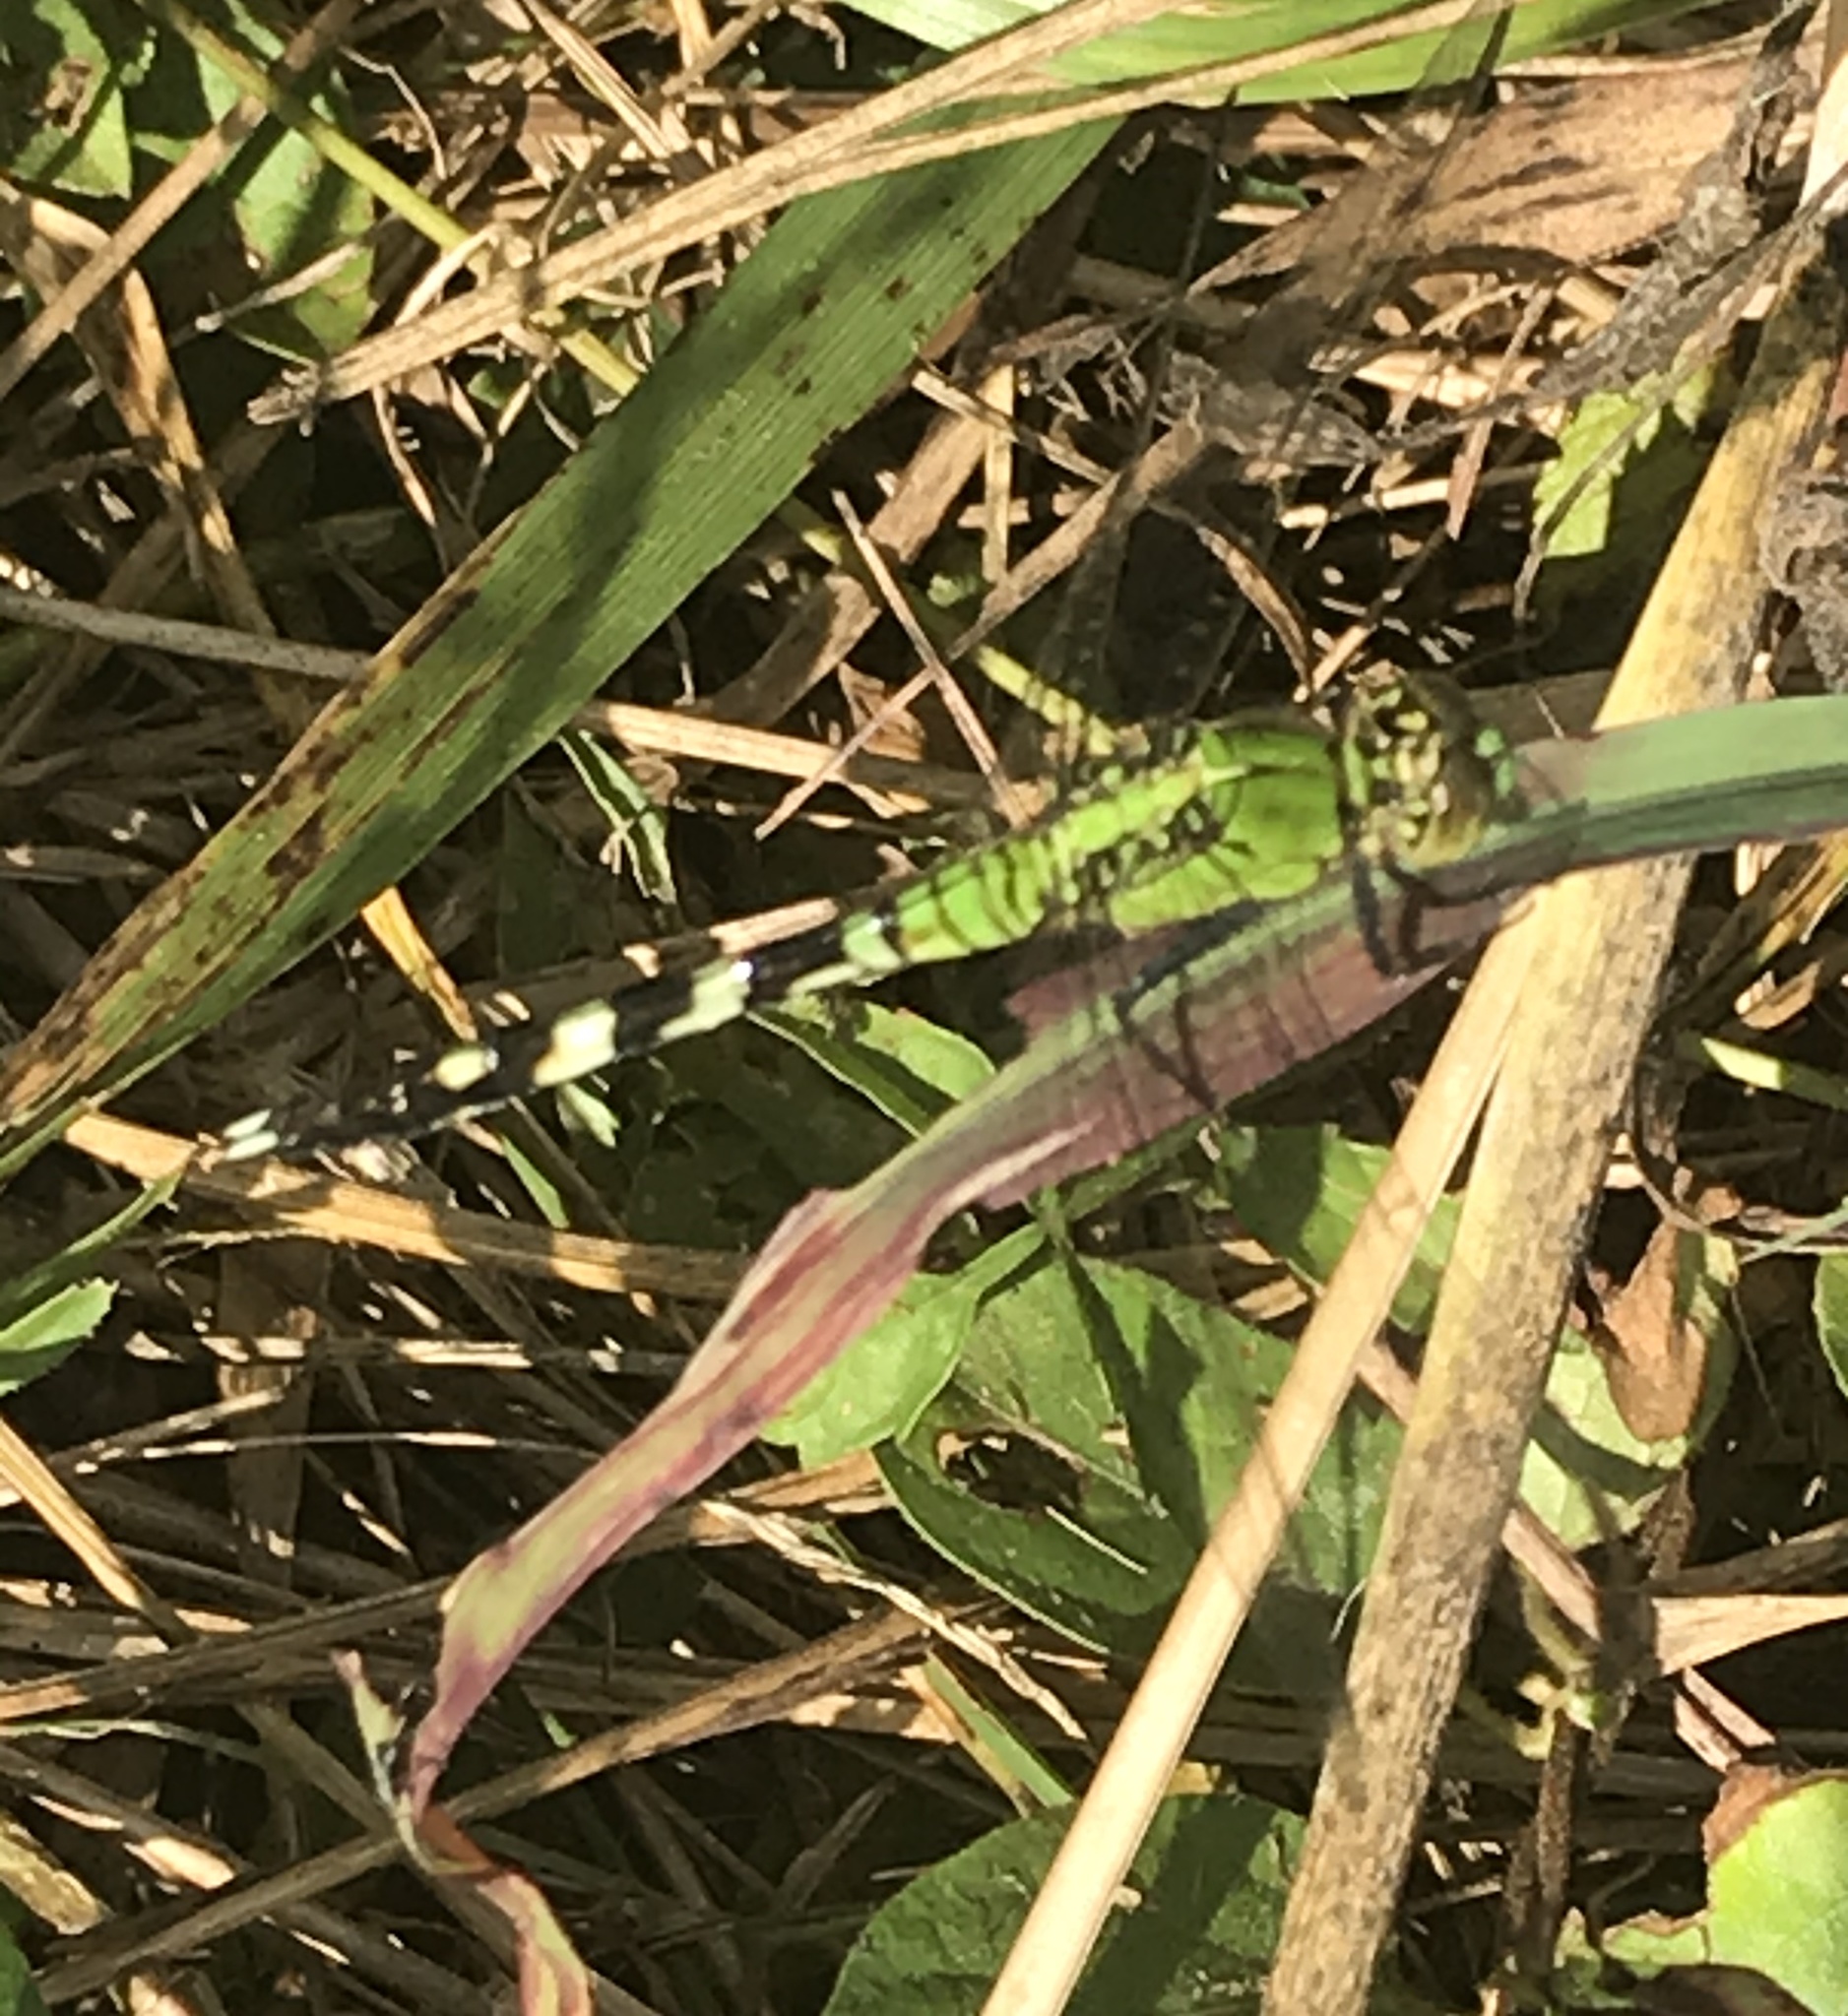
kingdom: Animalia
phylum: Arthropoda
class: Insecta
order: Odonata
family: Libellulidae
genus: Erythemis
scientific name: Erythemis simplicicollis
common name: Eastern pondhawk
